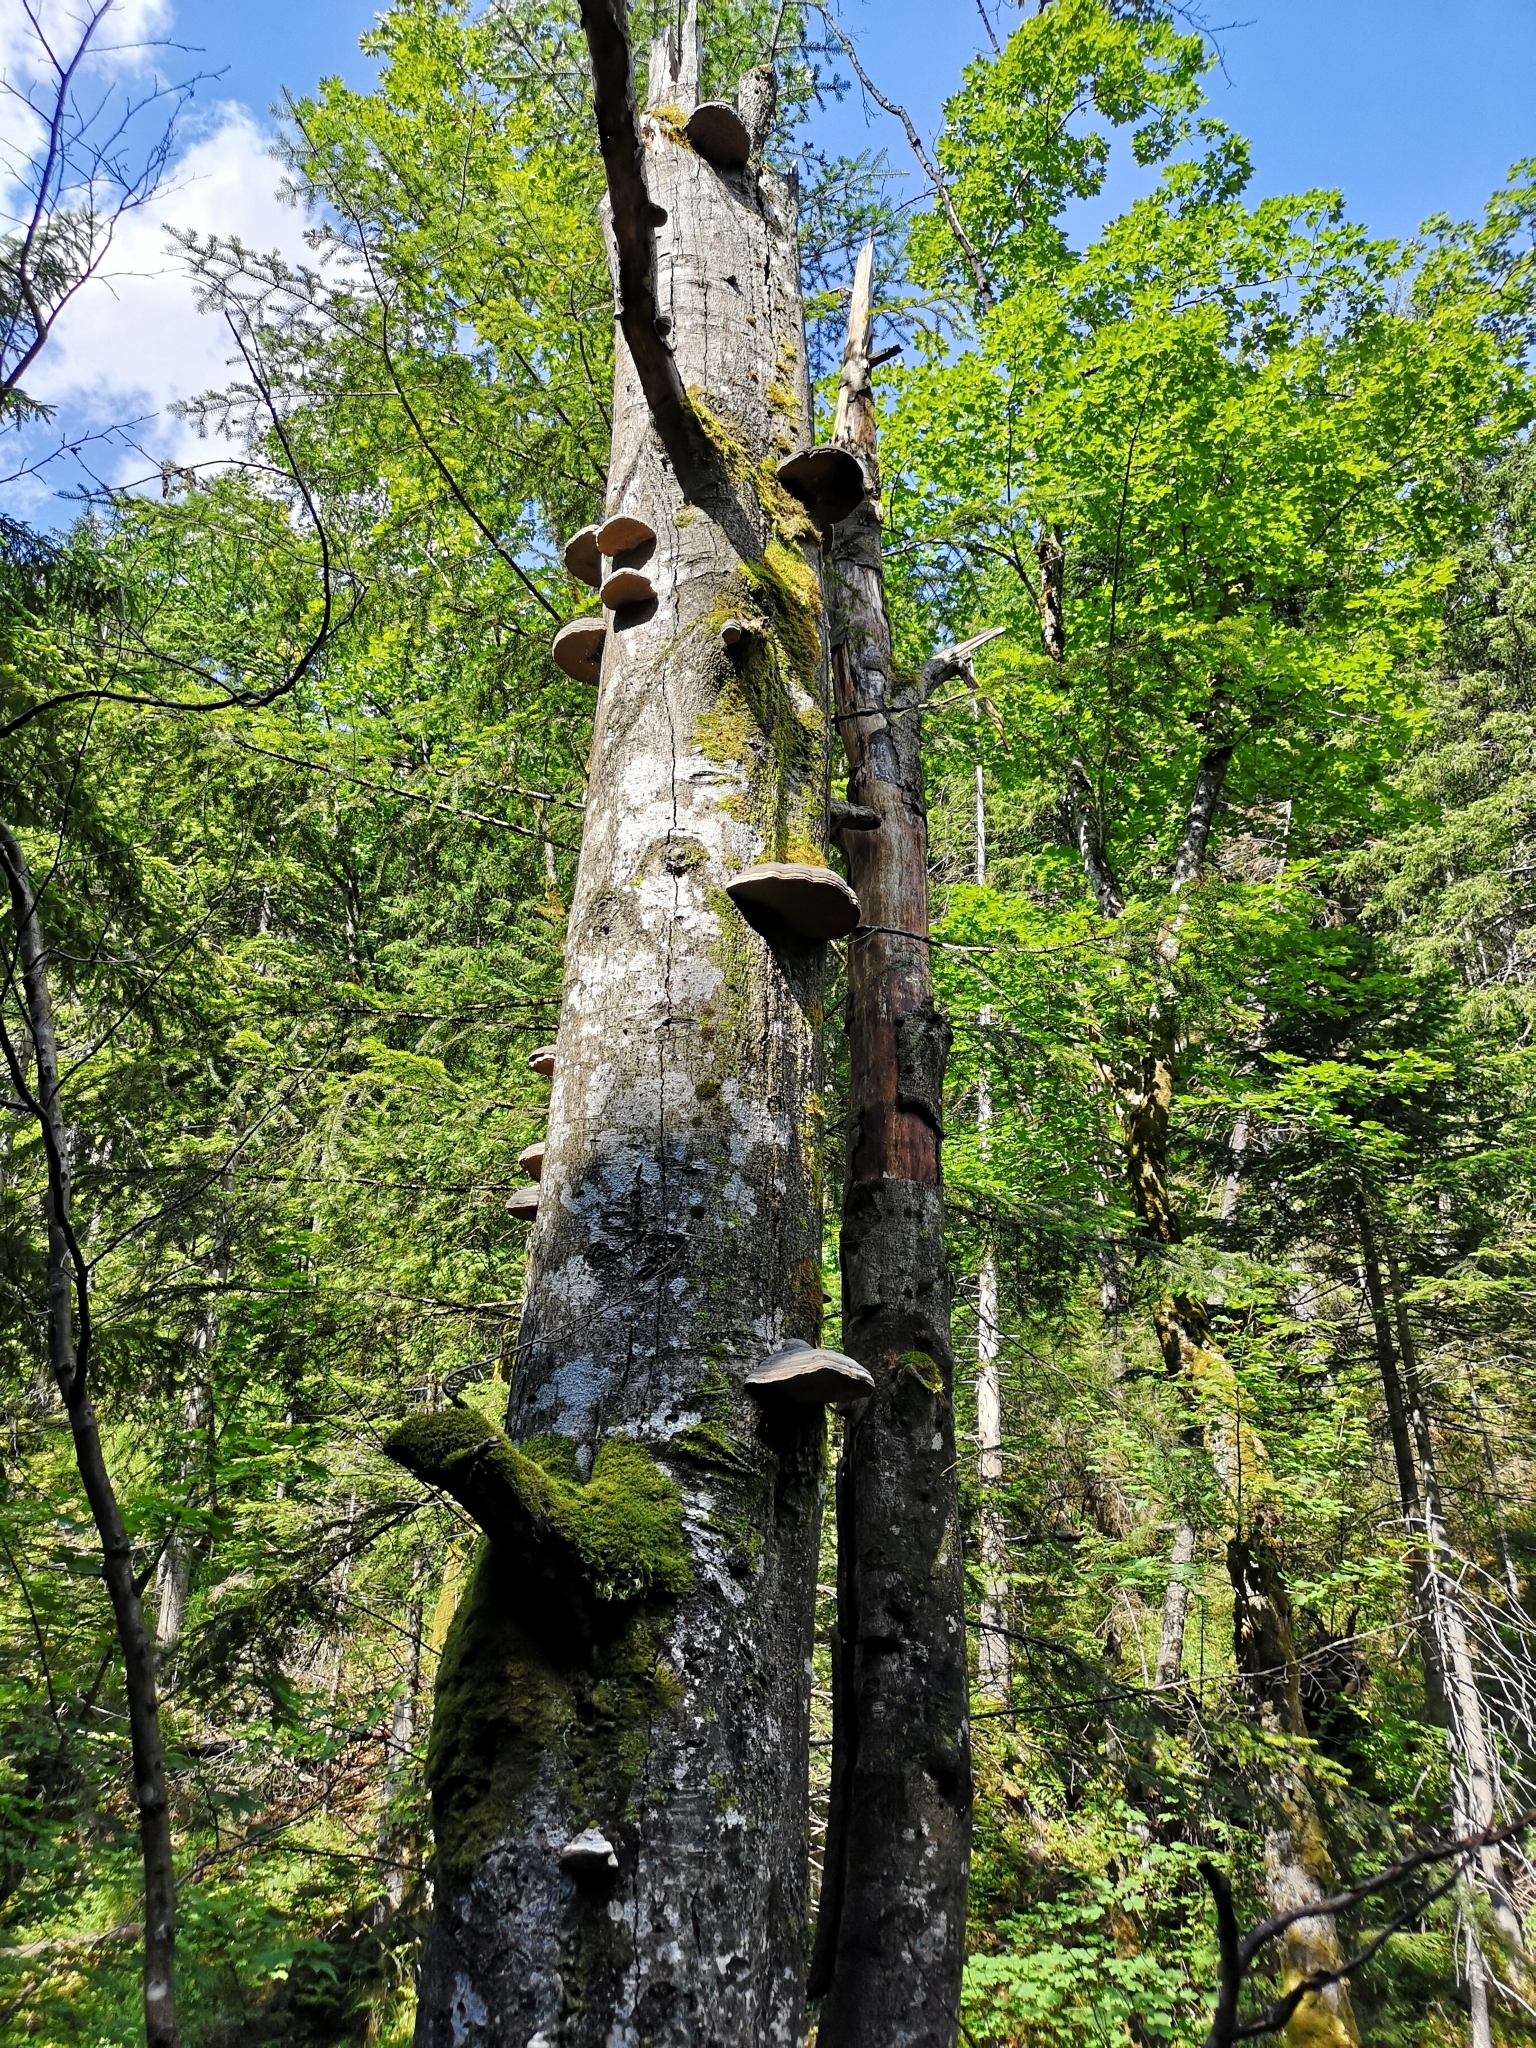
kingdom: Fungi
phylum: Basidiomycota
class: Agaricomycetes
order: Polyporales
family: Polyporaceae
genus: Fomes
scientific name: Fomes fomentarius
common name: Hoof fungus
